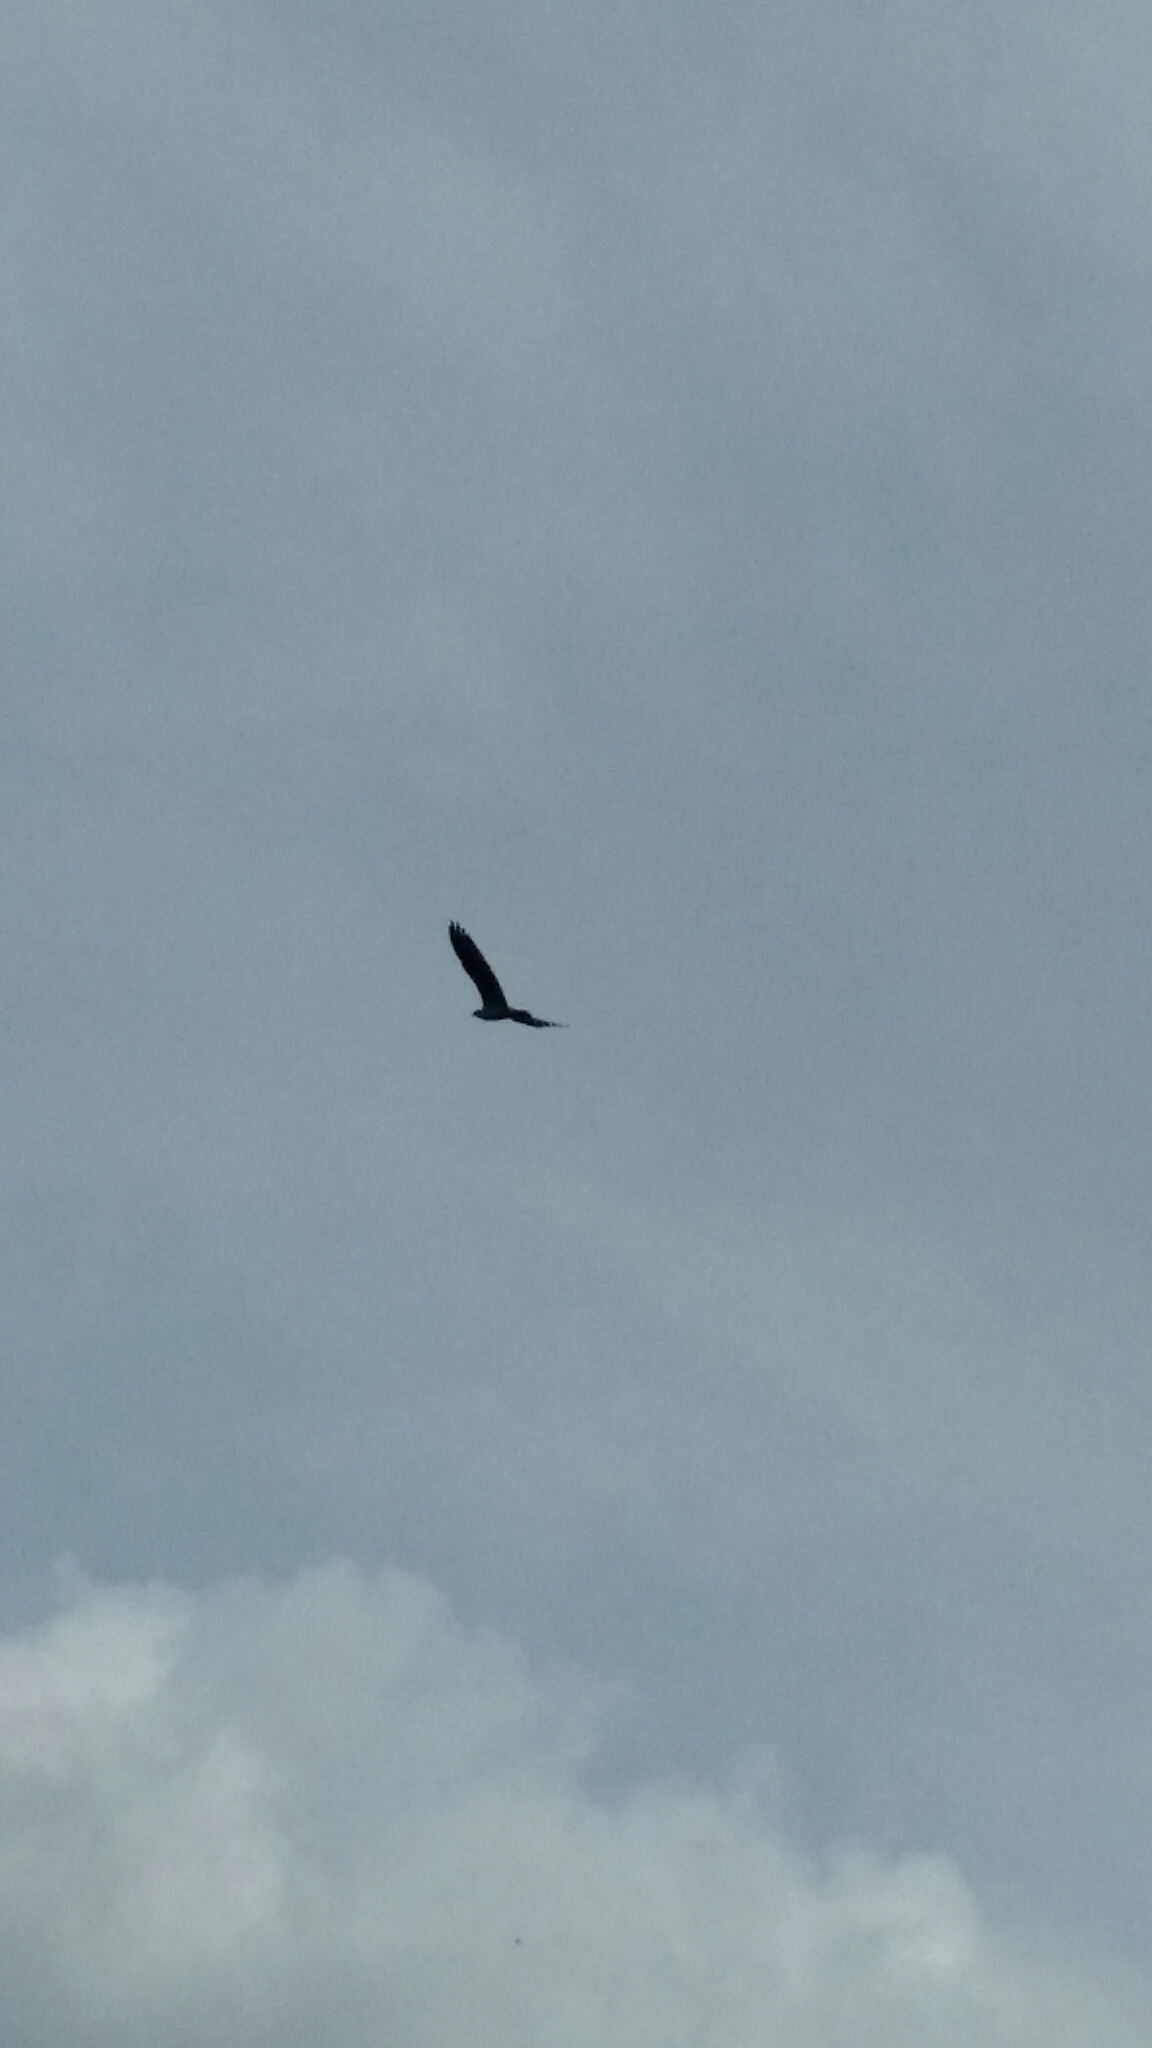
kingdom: Animalia
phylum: Chordata
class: Aves
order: Accipitriformes
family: Pandionidae
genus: Pandion
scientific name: Pandion haliaetus
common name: Osprey
